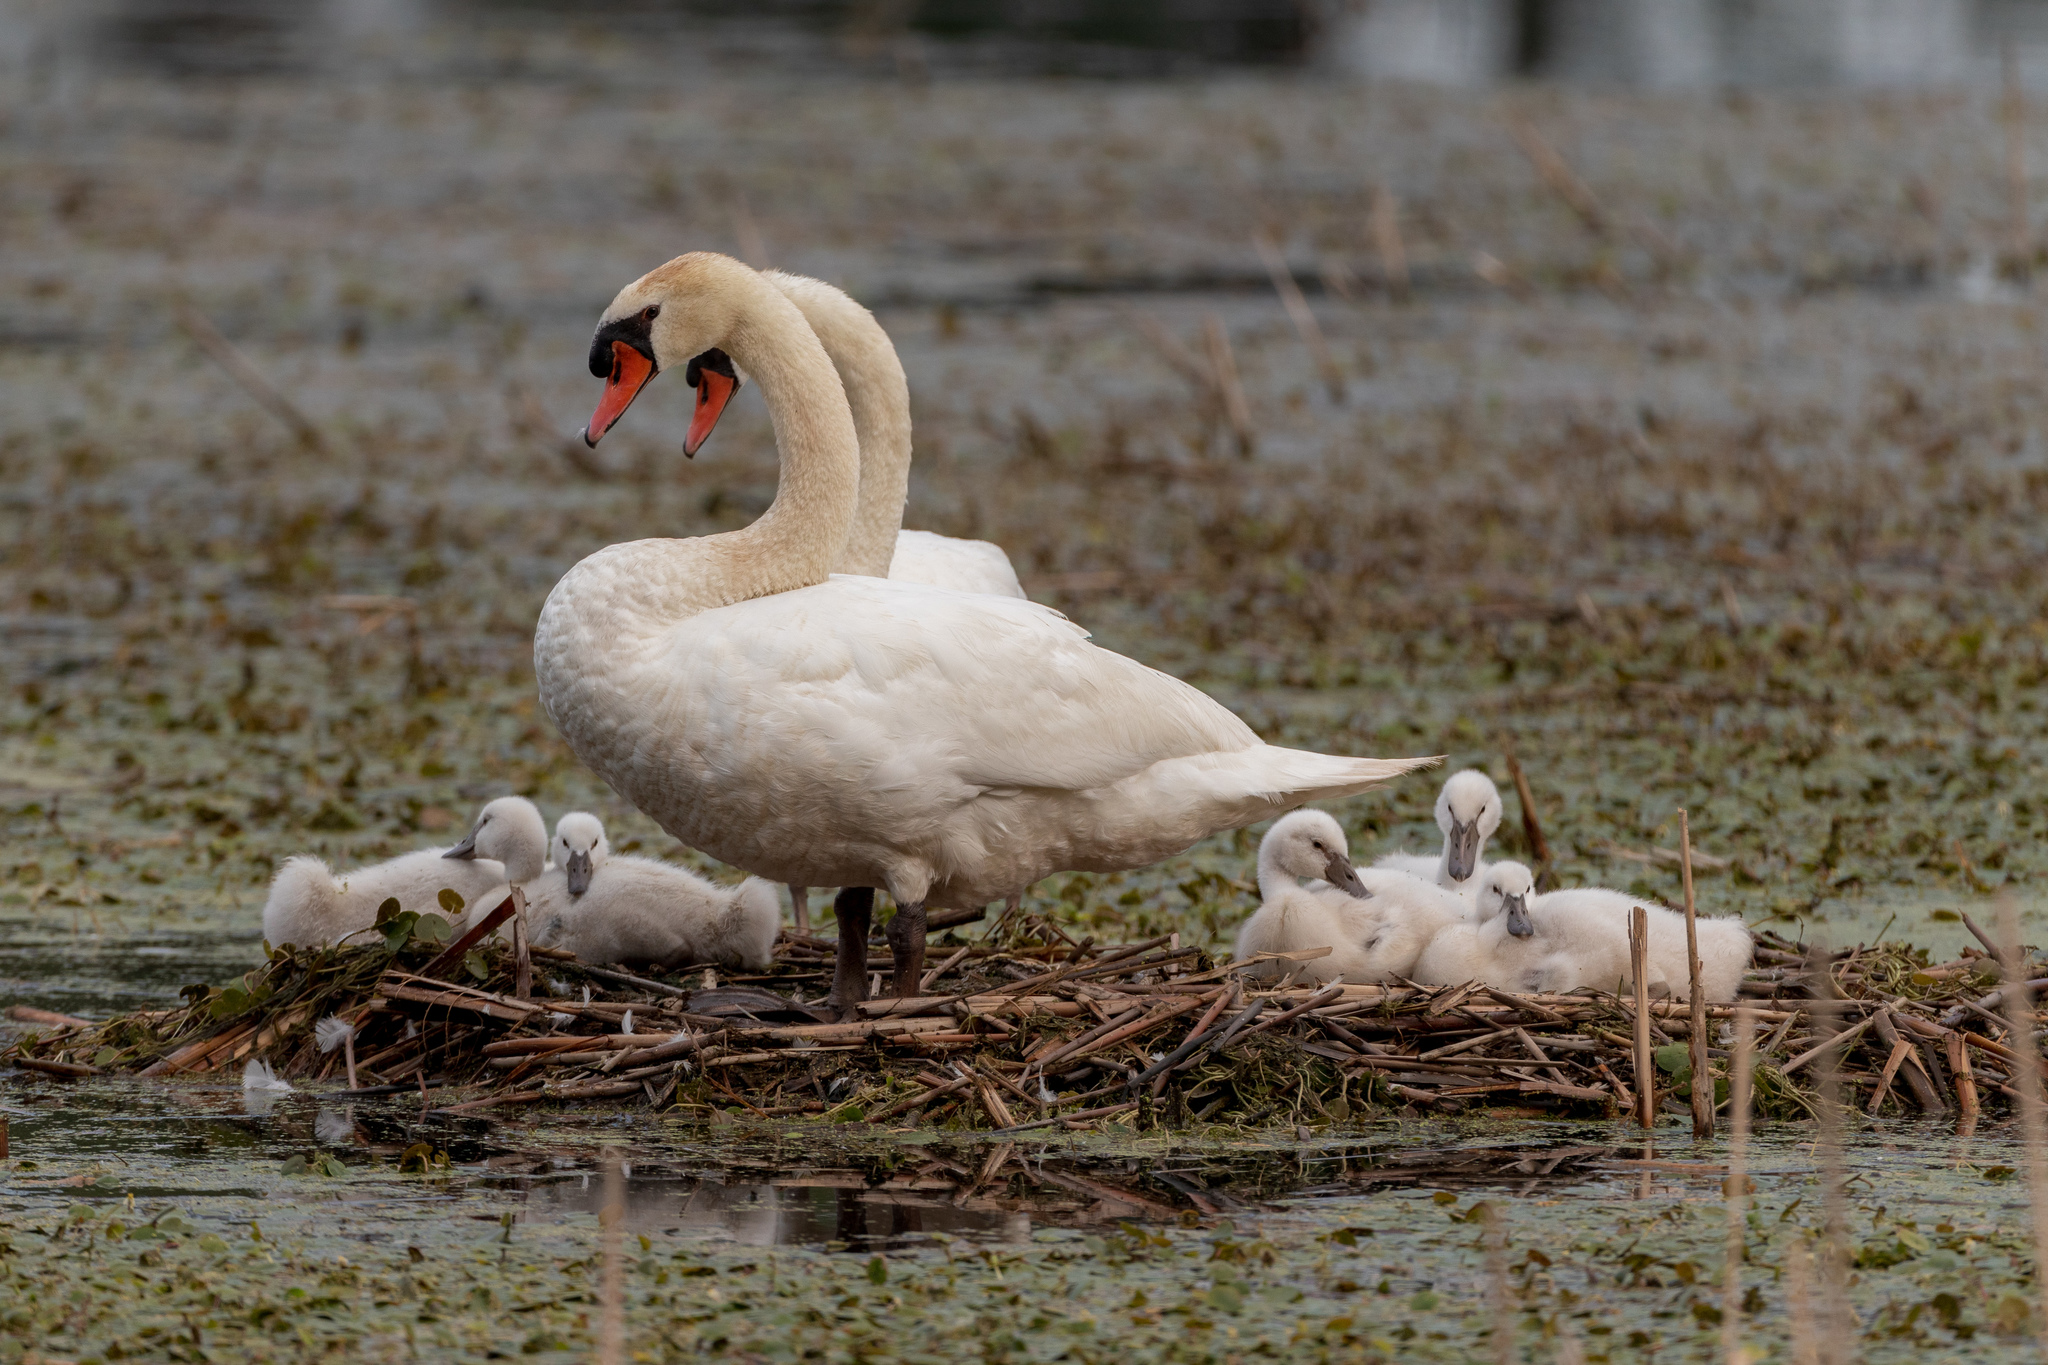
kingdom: Animalia
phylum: Chordata
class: Aves
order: Anseriformes
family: Anatidae
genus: Cygnus
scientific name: Cygnus olor
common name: Mute swan
